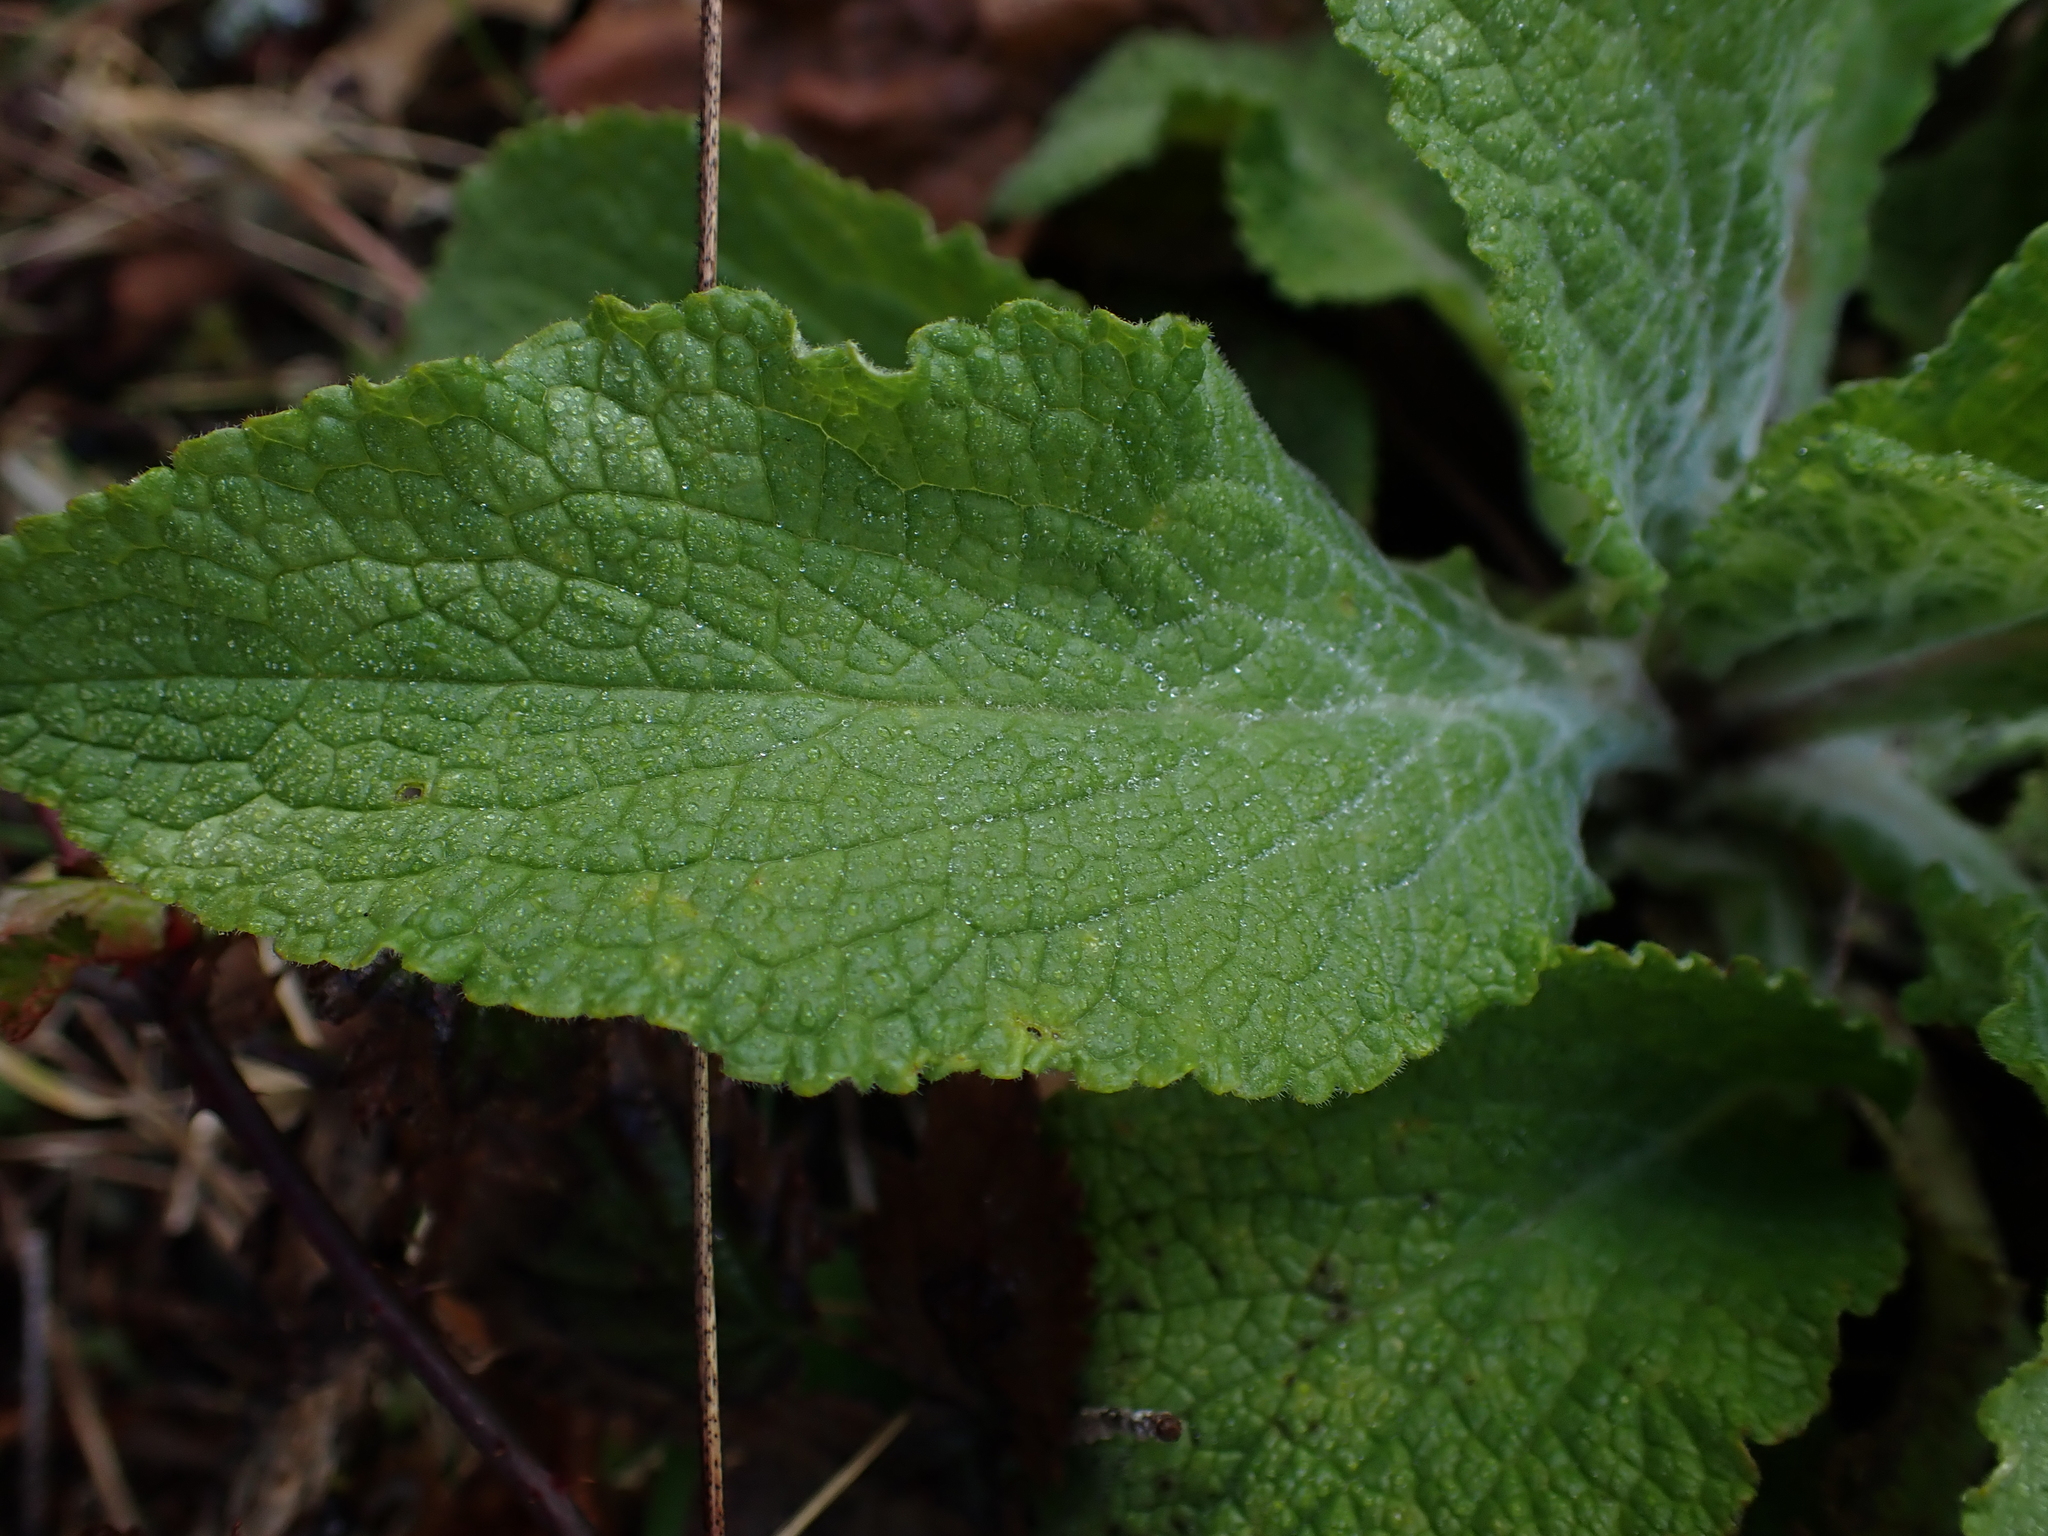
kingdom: Plantae
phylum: Tracheophyta
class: Magnoliopsida
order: Lamiales
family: Plantaginaceae
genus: Digitalis
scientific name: Digitalis purpurea
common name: Foxglove
